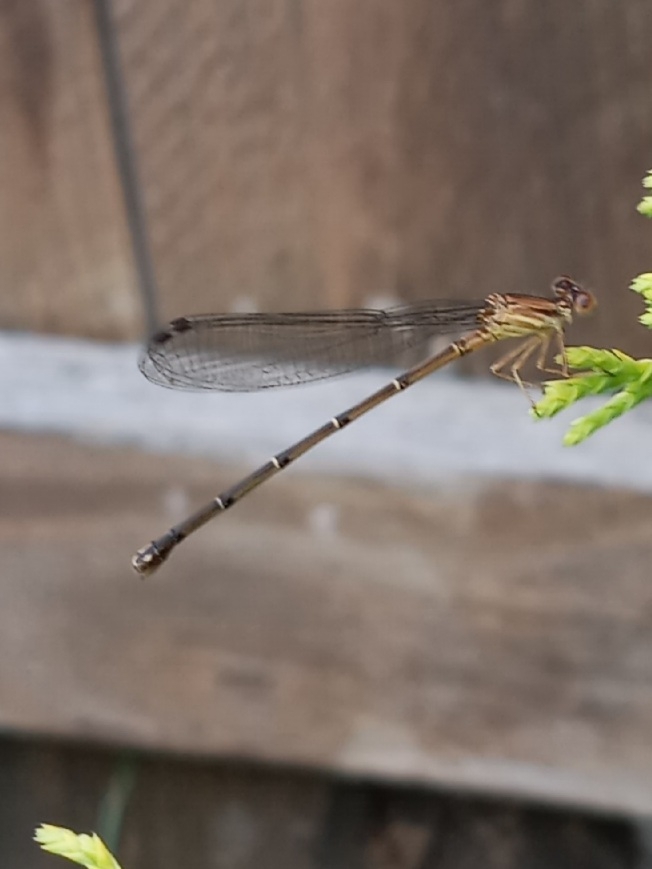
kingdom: Animalia
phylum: Arthropoda
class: Insecta
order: Odonata
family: Coenagrionidae
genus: Argia
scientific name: Argia apicalis
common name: Blue-fronted dancer
